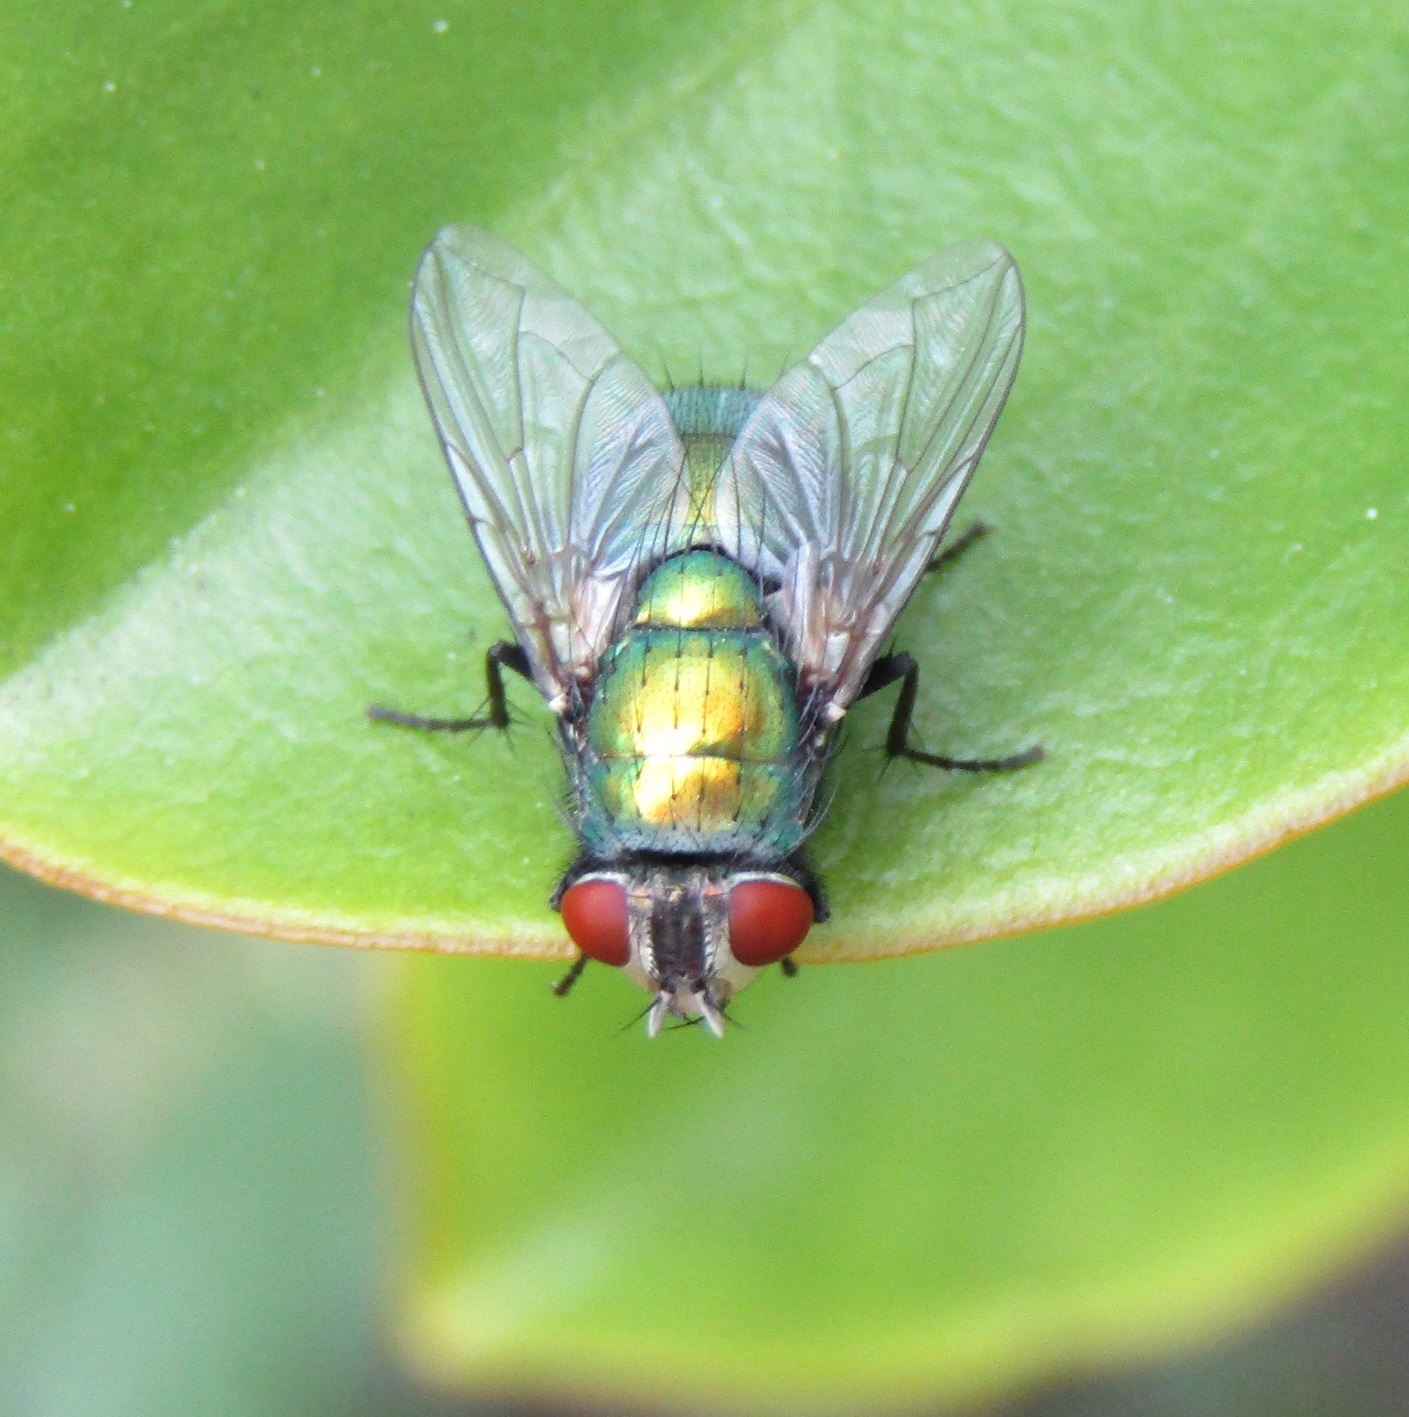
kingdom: Animalia
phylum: Arthropoda
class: Insecta
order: Diptera
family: Calliphoridae
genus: Lucilia
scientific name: Lucilia sericata
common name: Blow fly
